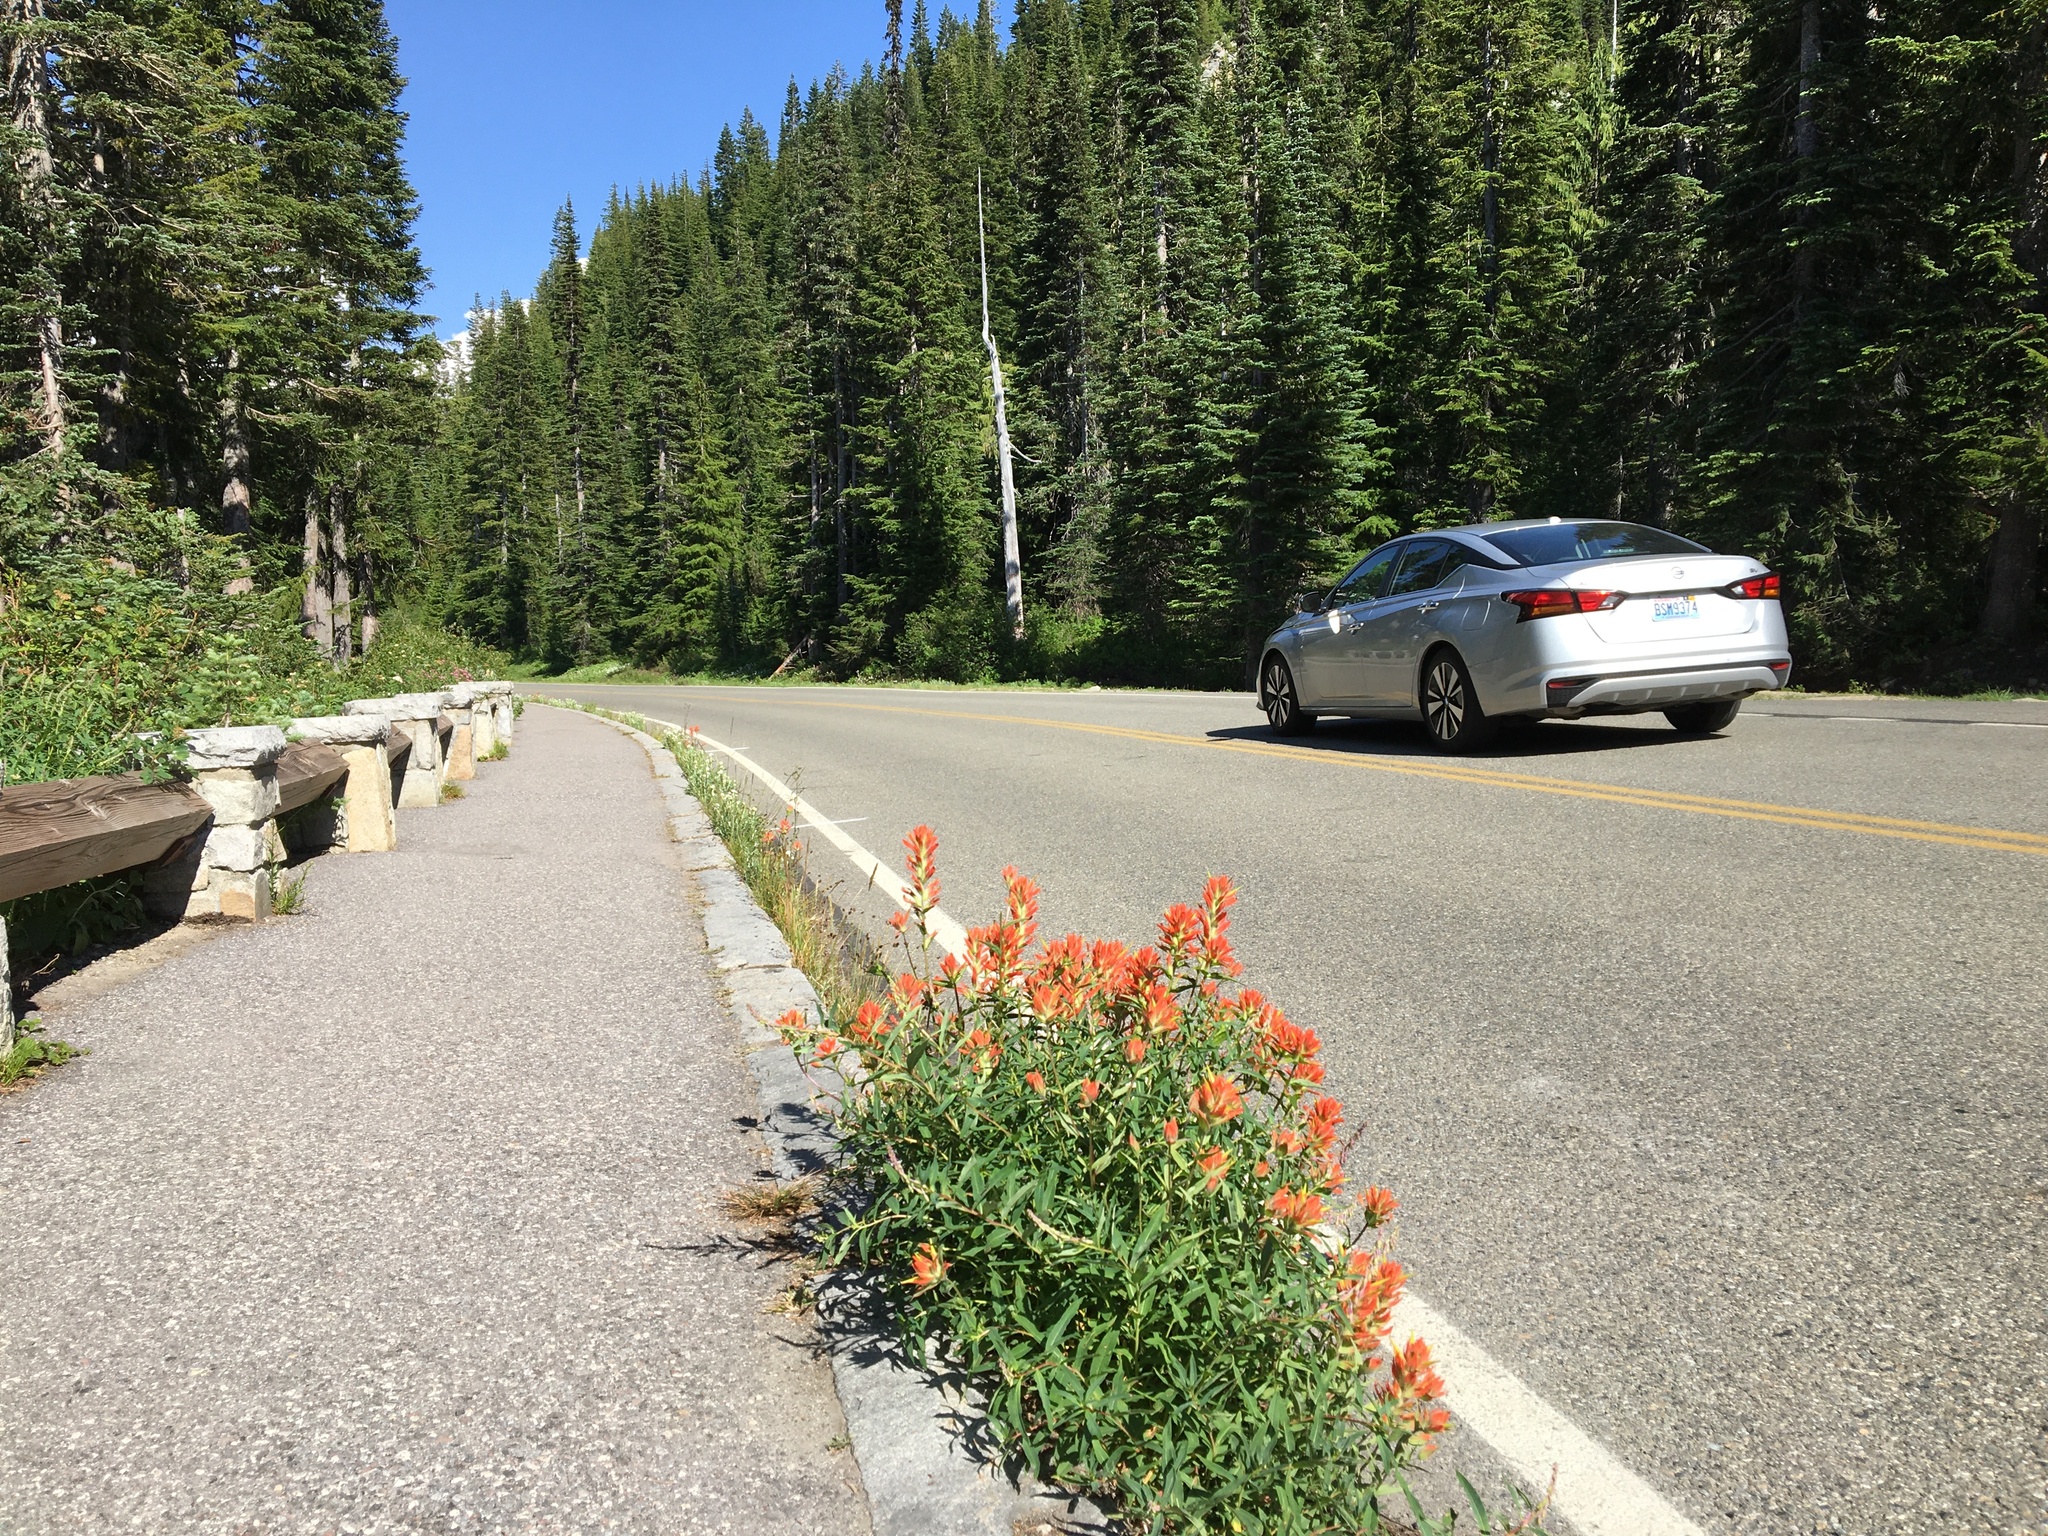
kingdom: Plantae
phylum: Tracheophyta
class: Magnoliopsida
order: Lamiales
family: Orobanchaceae
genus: Castilleja
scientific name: Castilleja miniata
